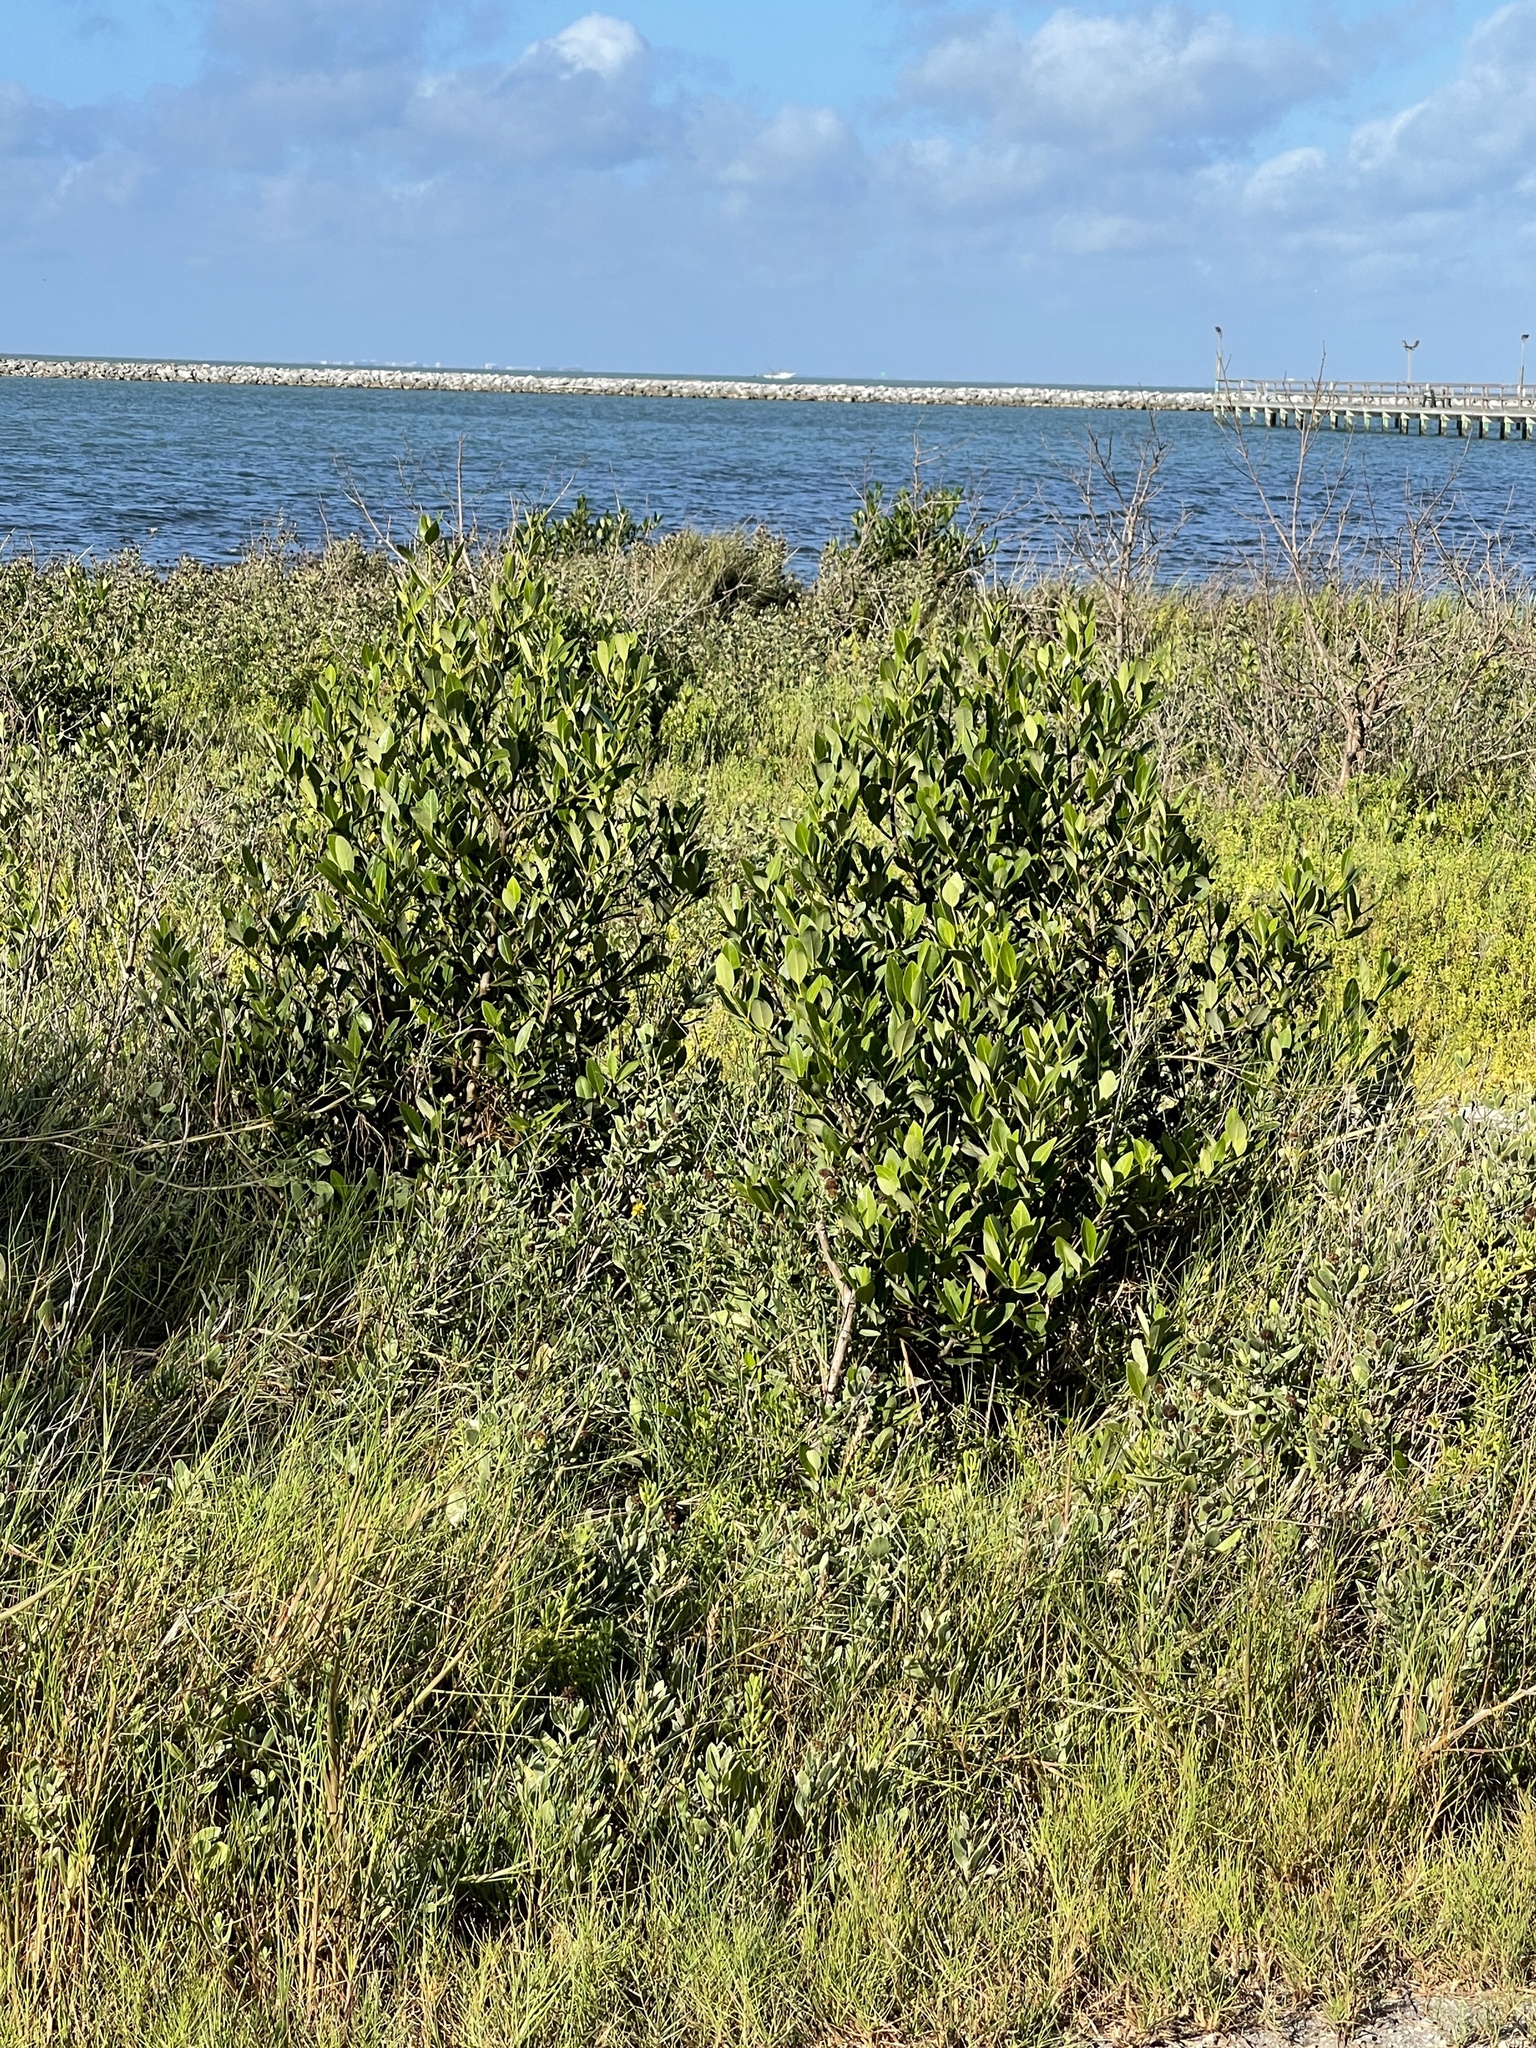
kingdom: Plantae
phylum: Tracheophyta
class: Magnoliopsida
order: Lamiales
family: Acanthaceae
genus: Avicennia
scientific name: Avicennia germinans
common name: Black mangrove
